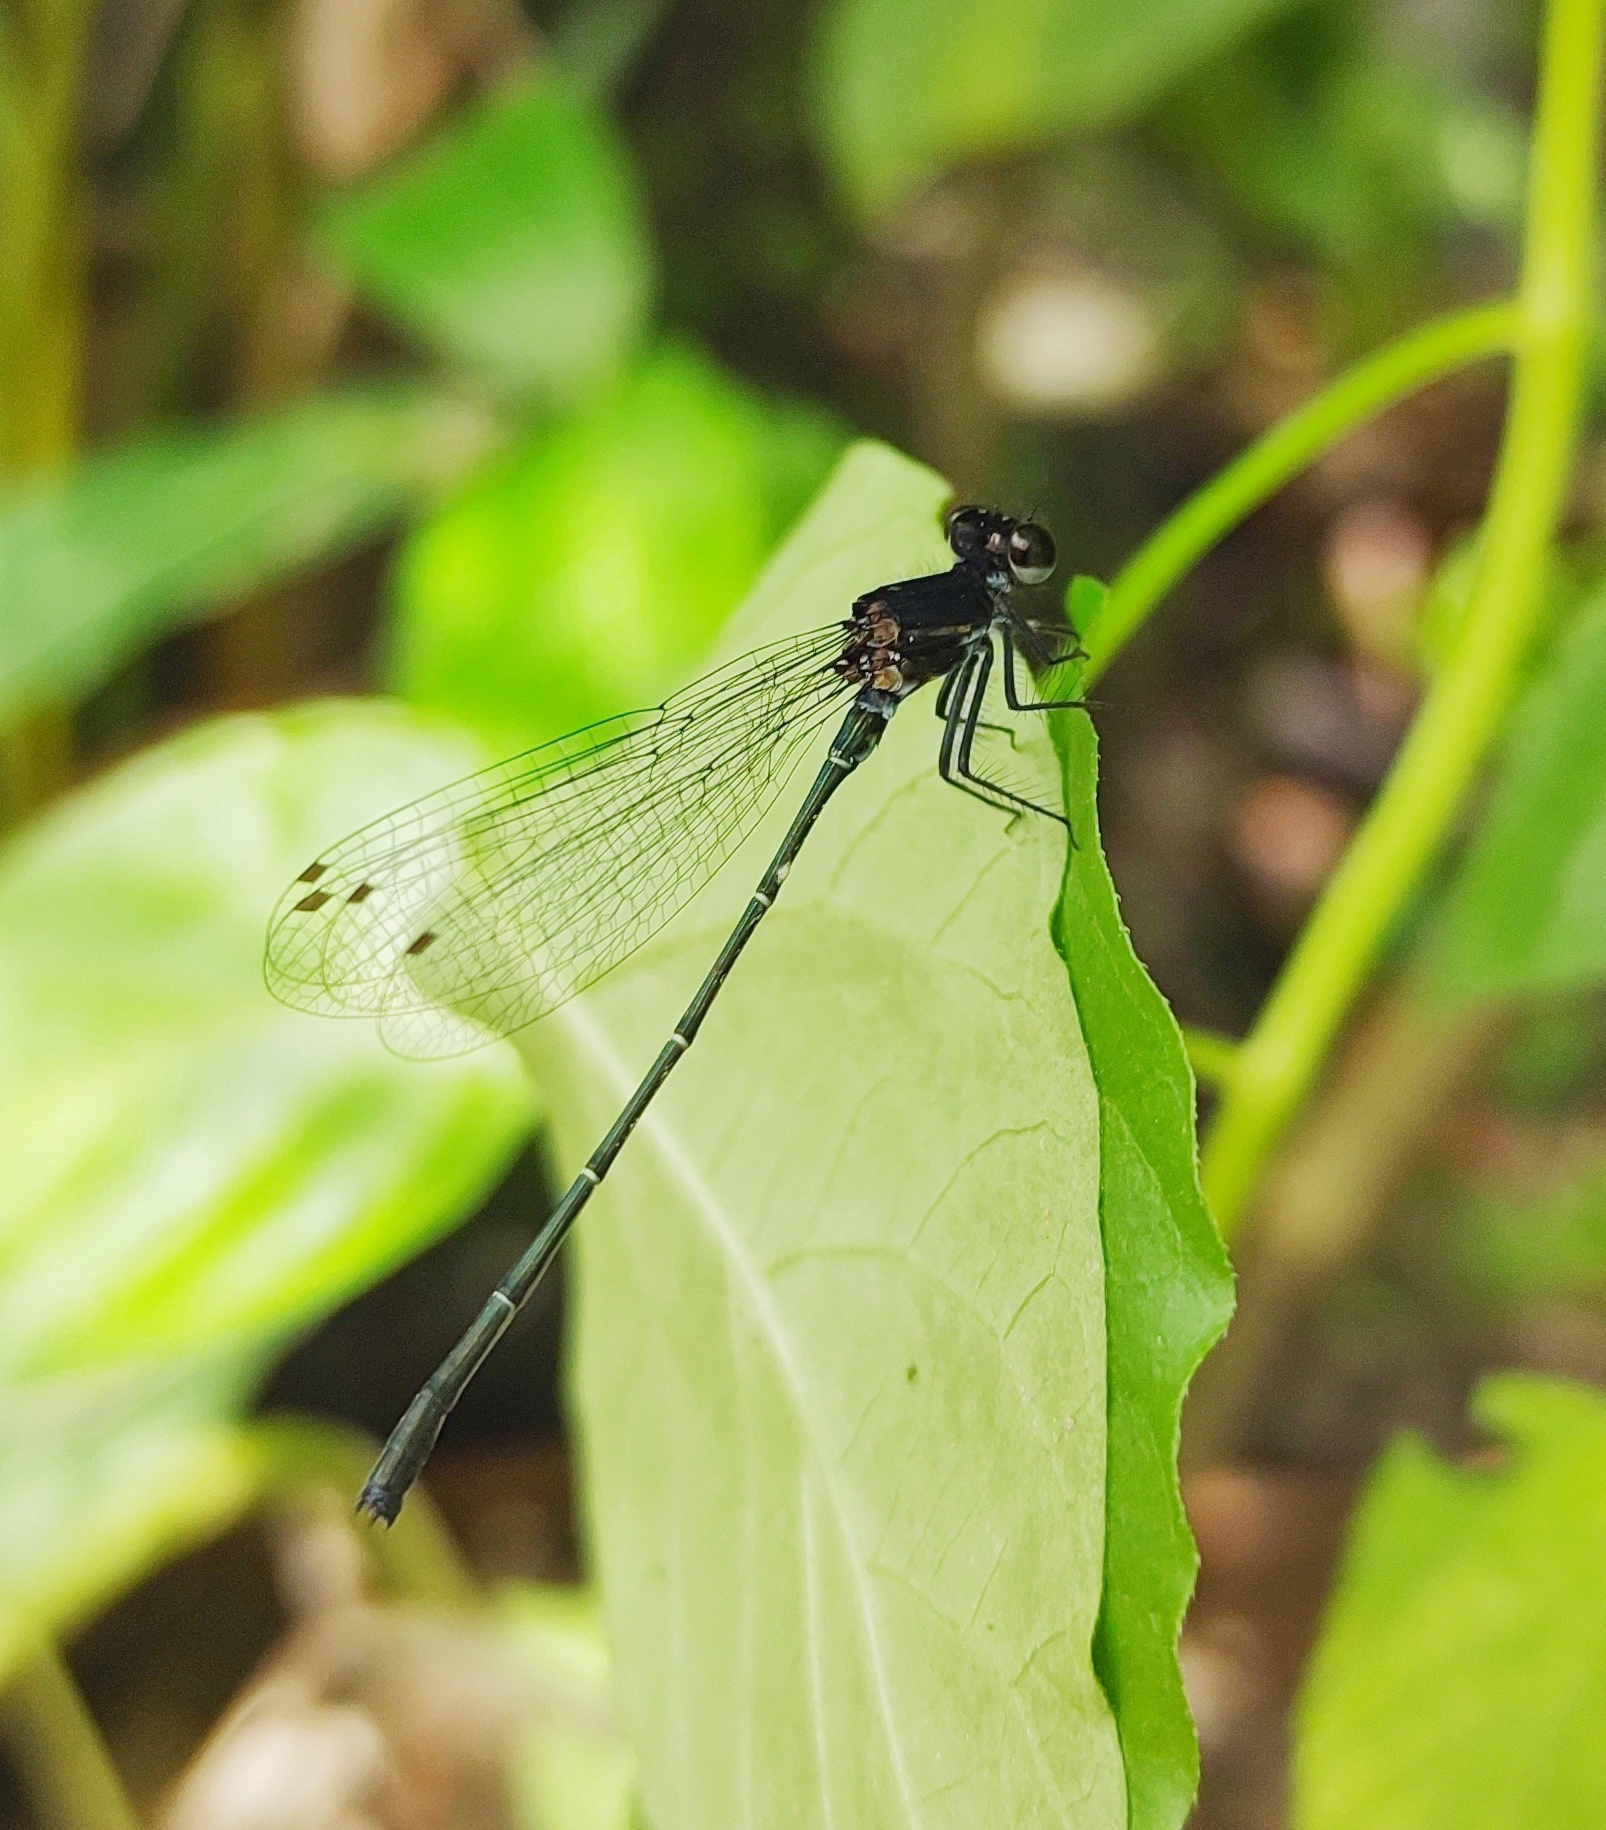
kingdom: Animalia
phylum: Arthropoda
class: Insecta
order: Odonata
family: Platycnemididae
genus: Onychargia
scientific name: Onychargia atrocyana
